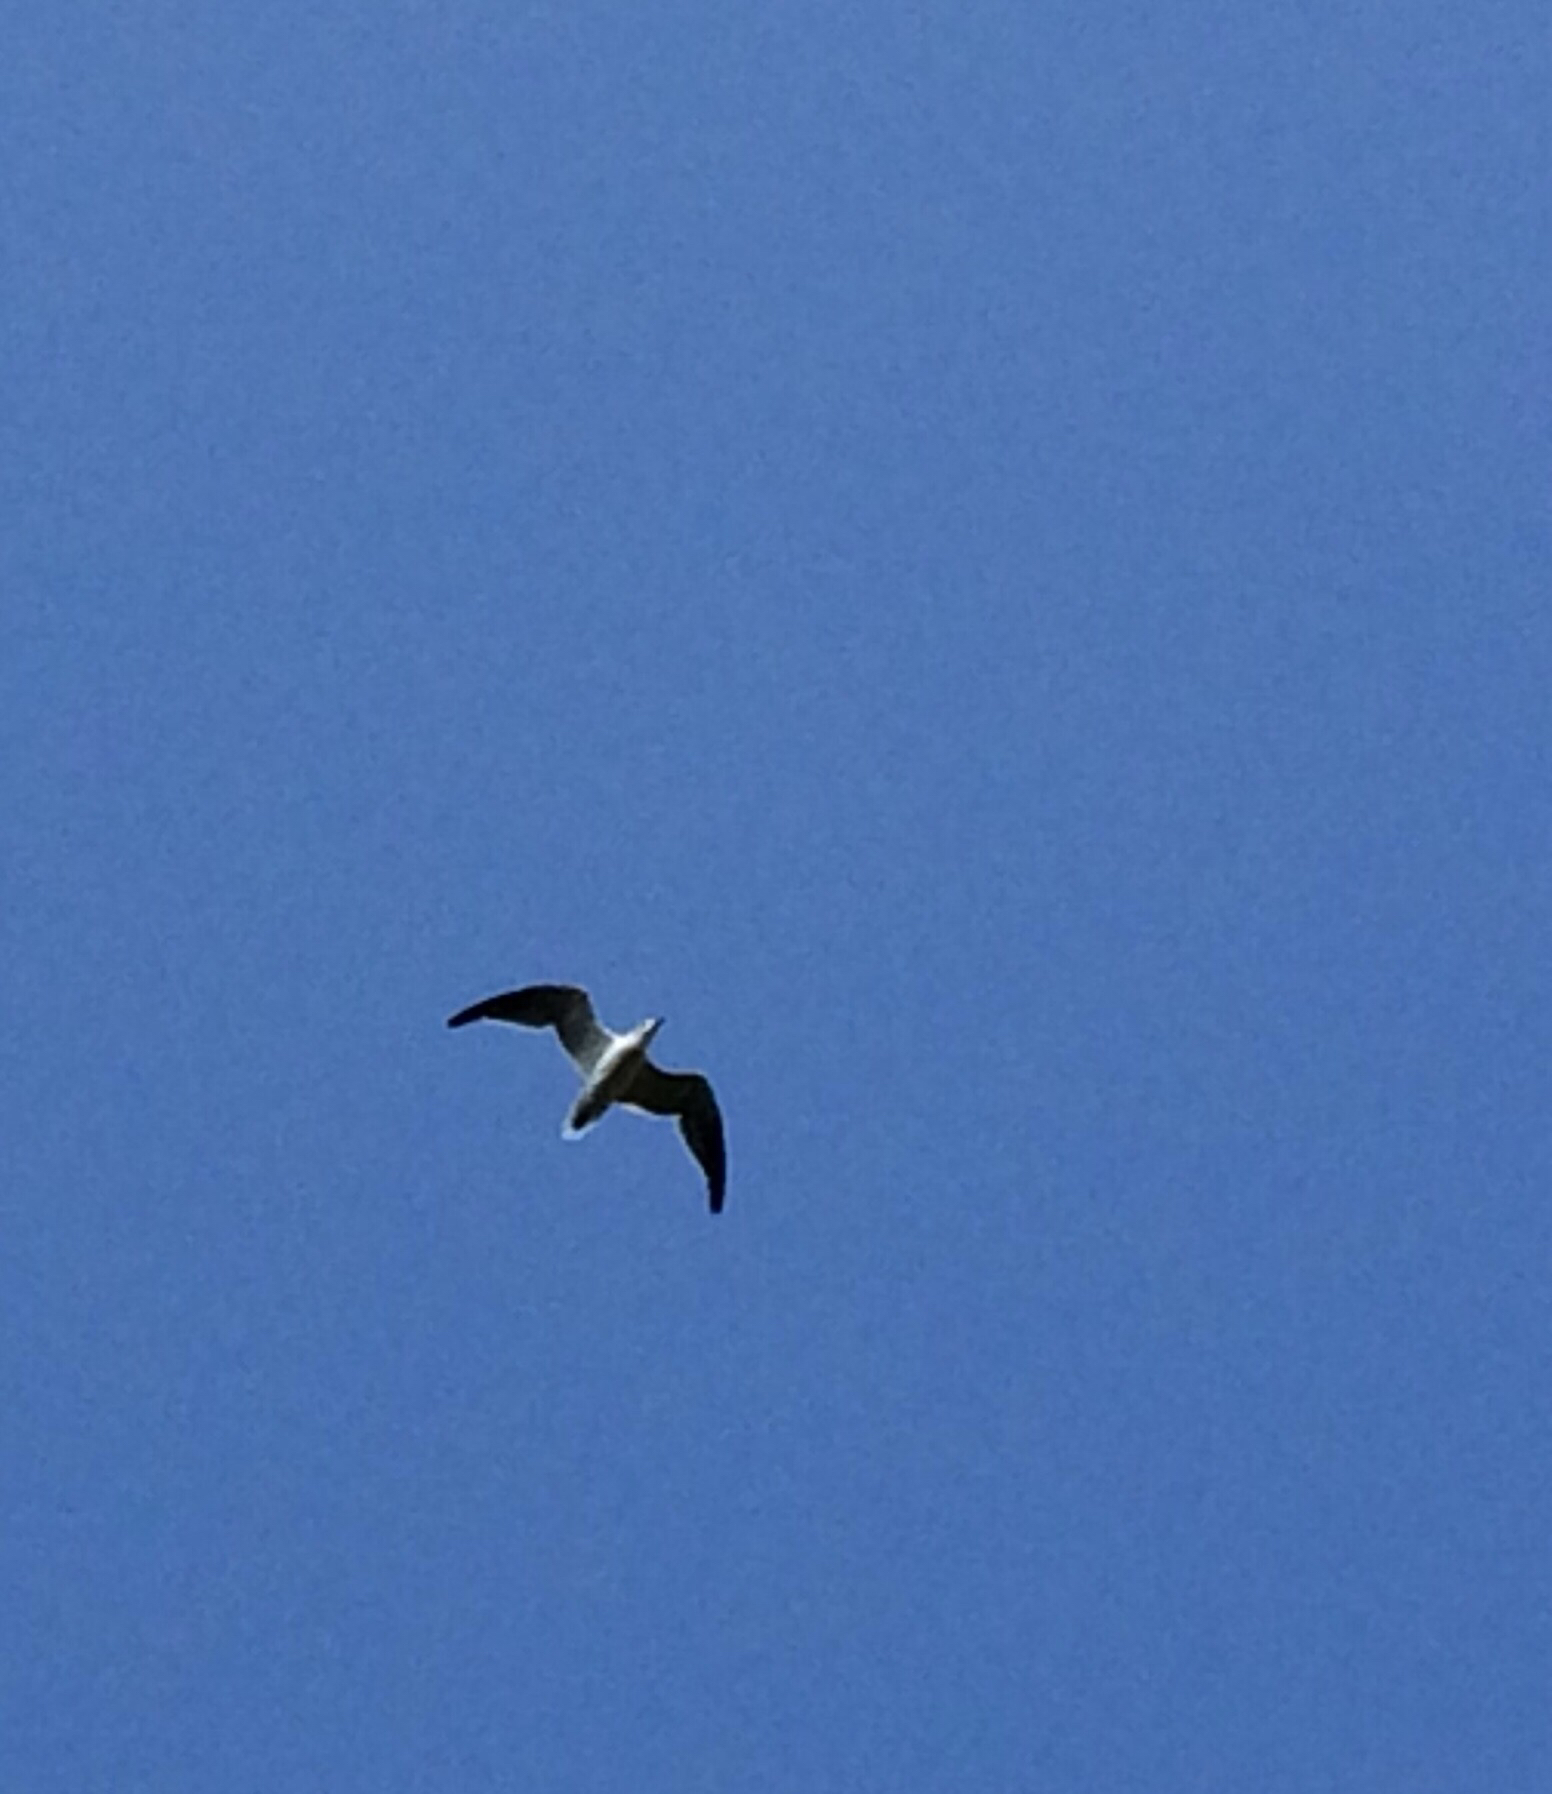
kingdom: Animalia
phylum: Chordata
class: Aves
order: Charadriiformes
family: Laridae
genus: Leucophaeus
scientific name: Leucophaeus atricilla
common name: Laughing gull
